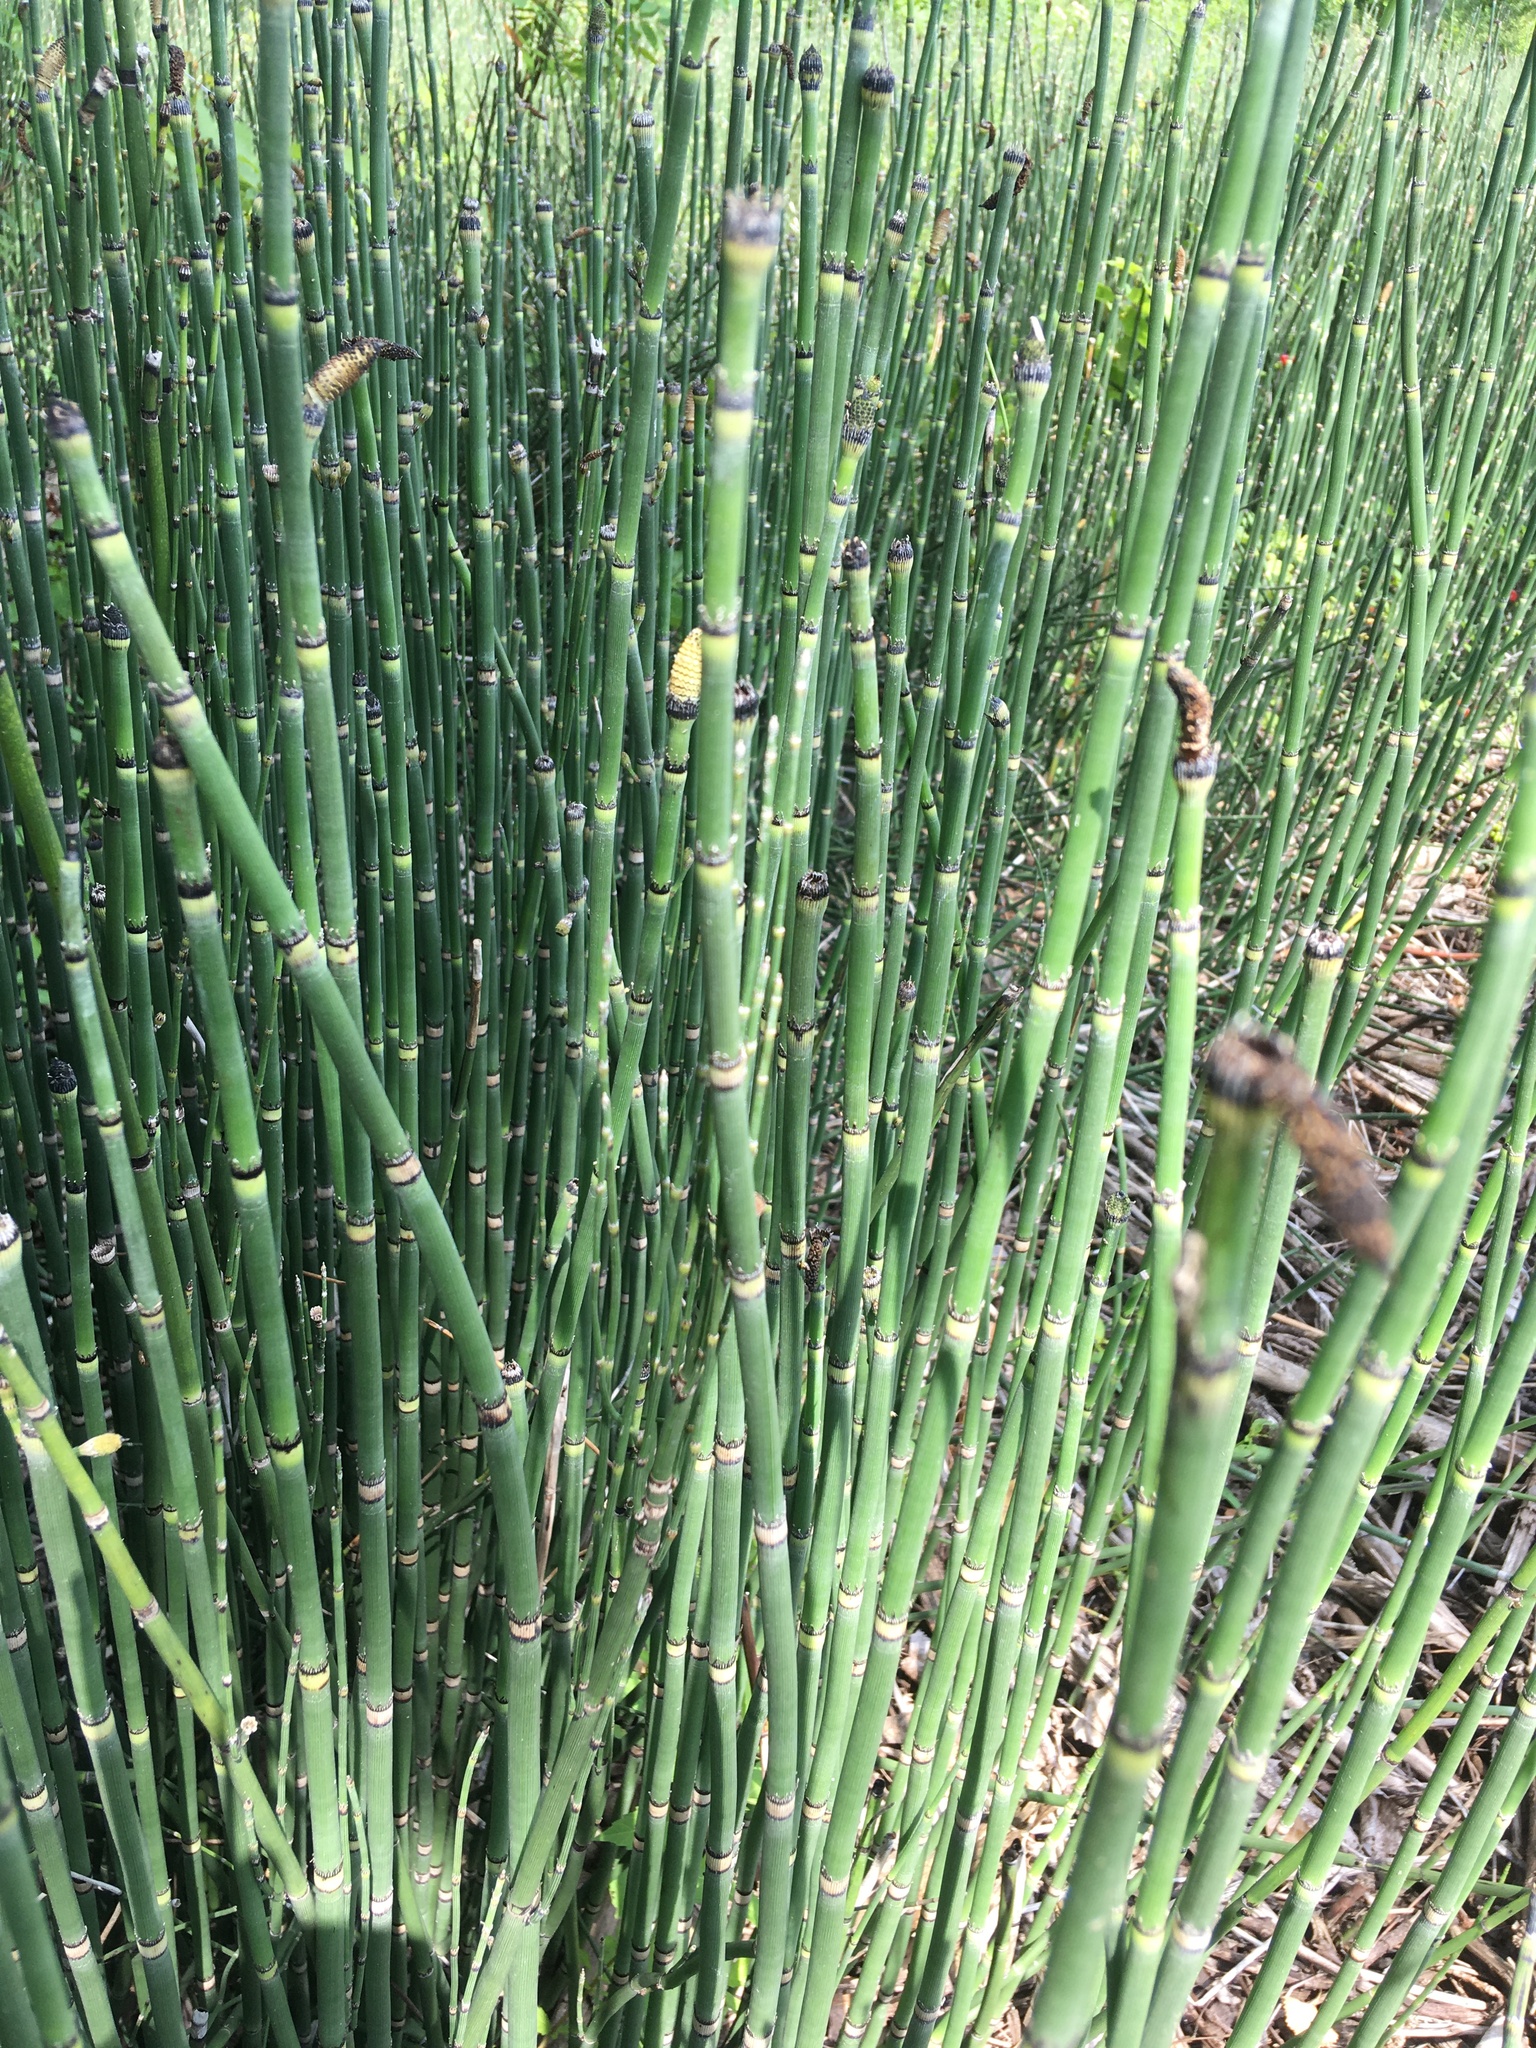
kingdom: Plantae
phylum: Tracheophyta
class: Polypodiopsida
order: Equisetales
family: Equisetaceae
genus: Equisetum
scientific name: Equisetum hyemale
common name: Rough horsetail
